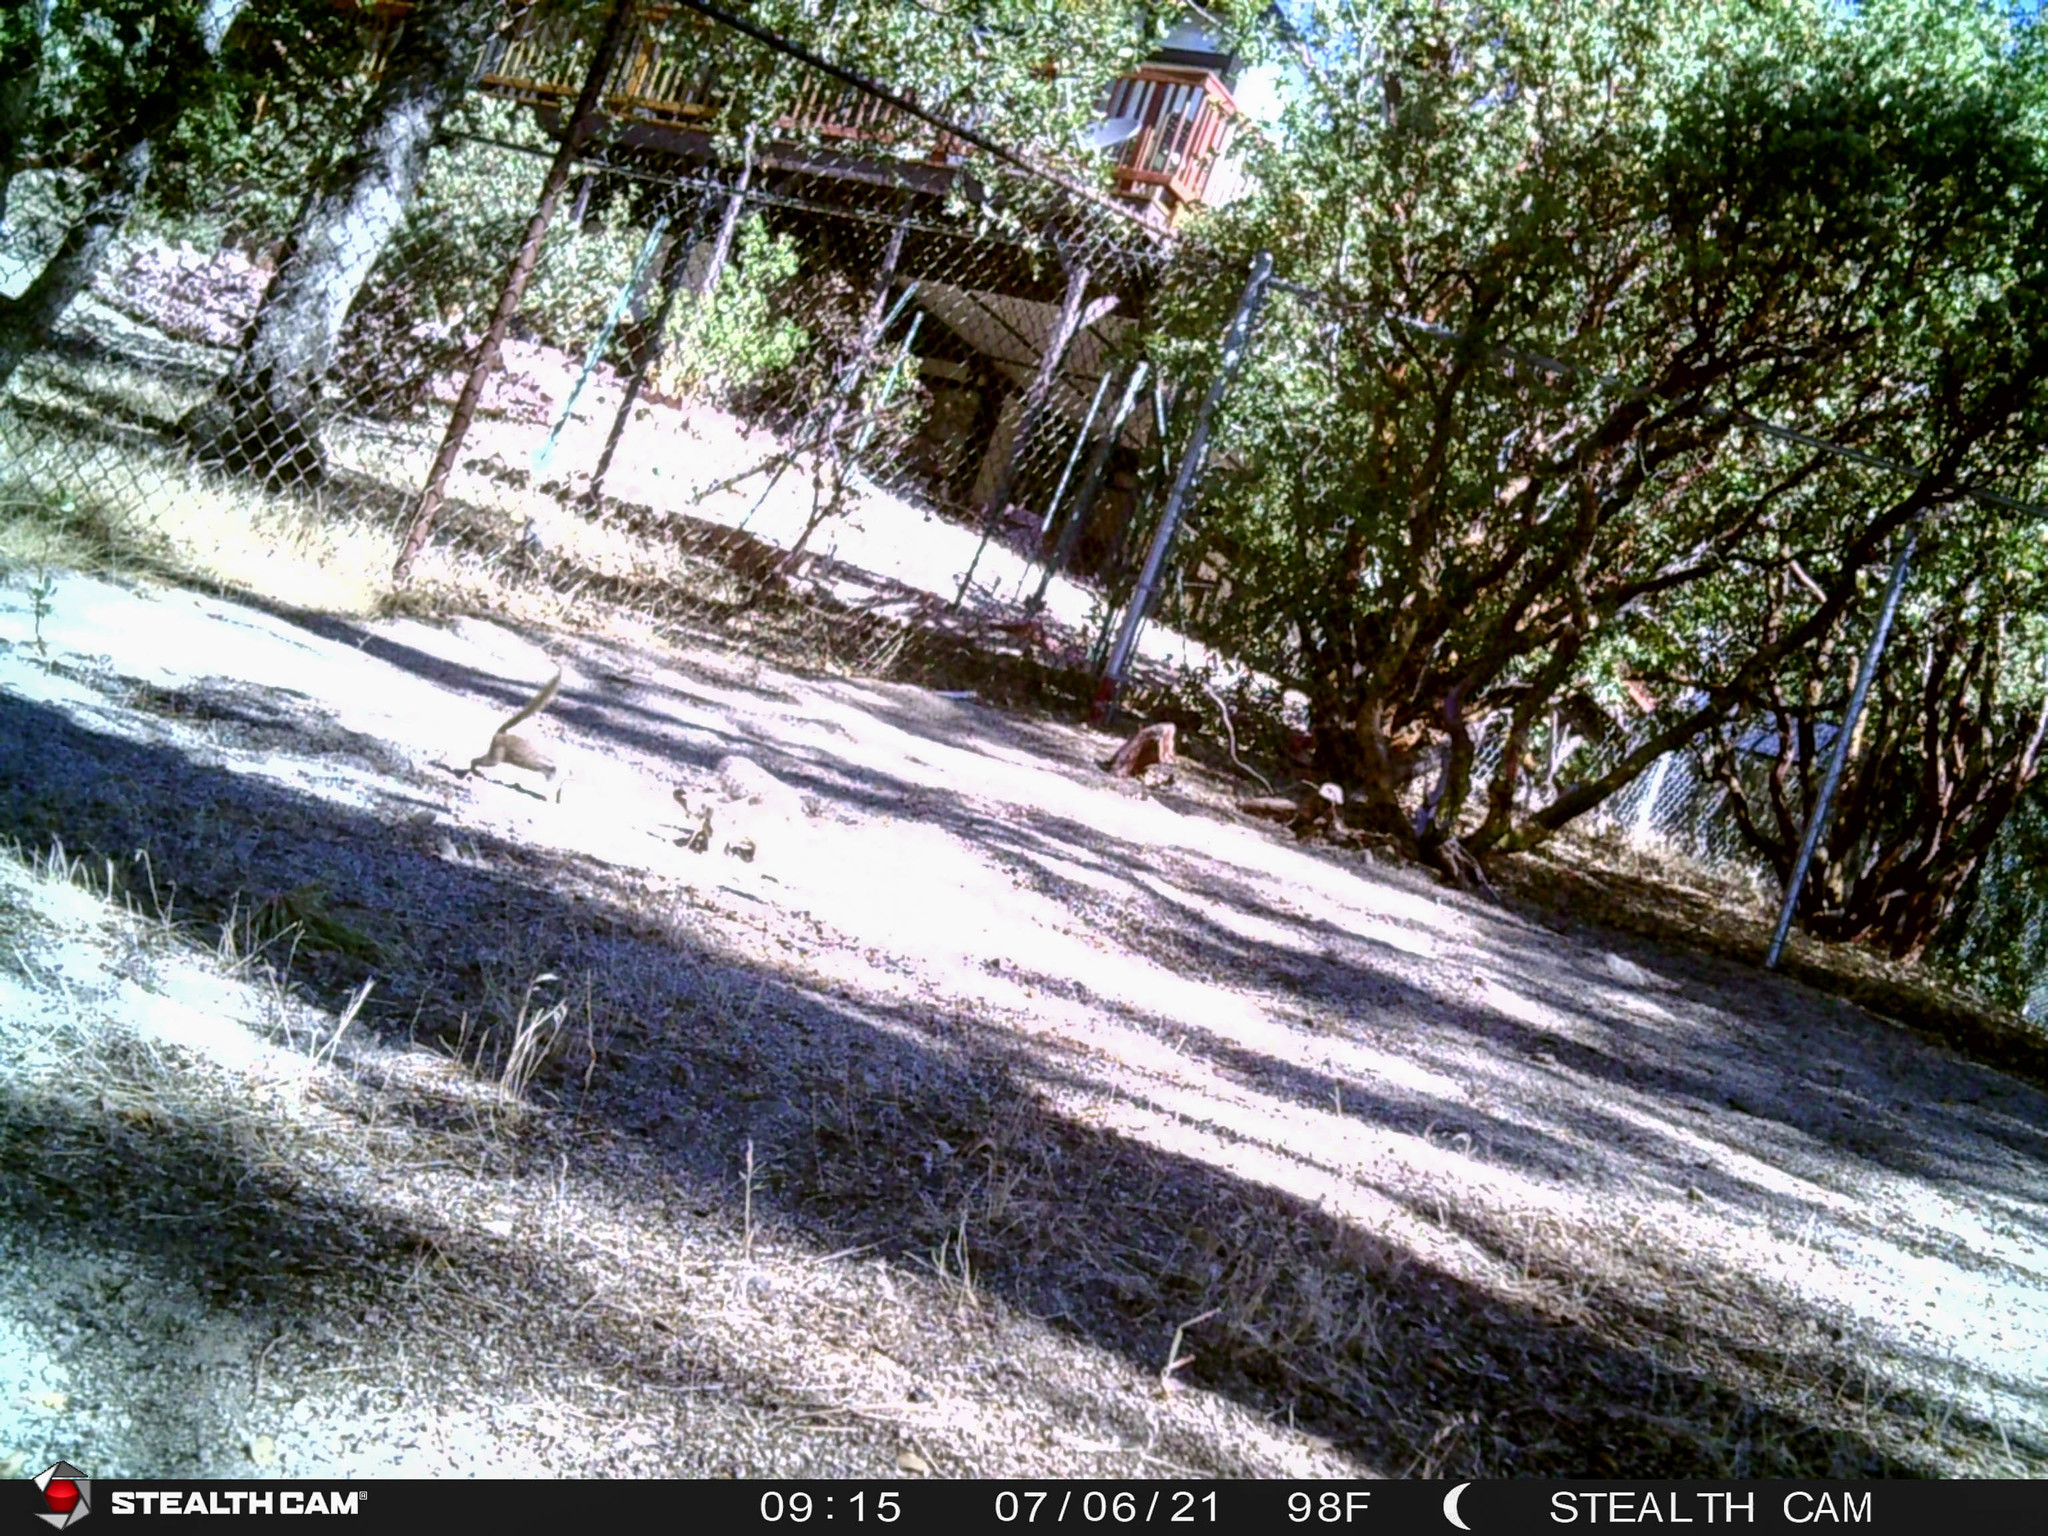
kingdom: Animalia
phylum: Chordata
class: Mammalia
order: Rodentia
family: Sciuridae
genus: Otospermophilus
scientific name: Otospermophilus beecheyi
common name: California ground squirrel
